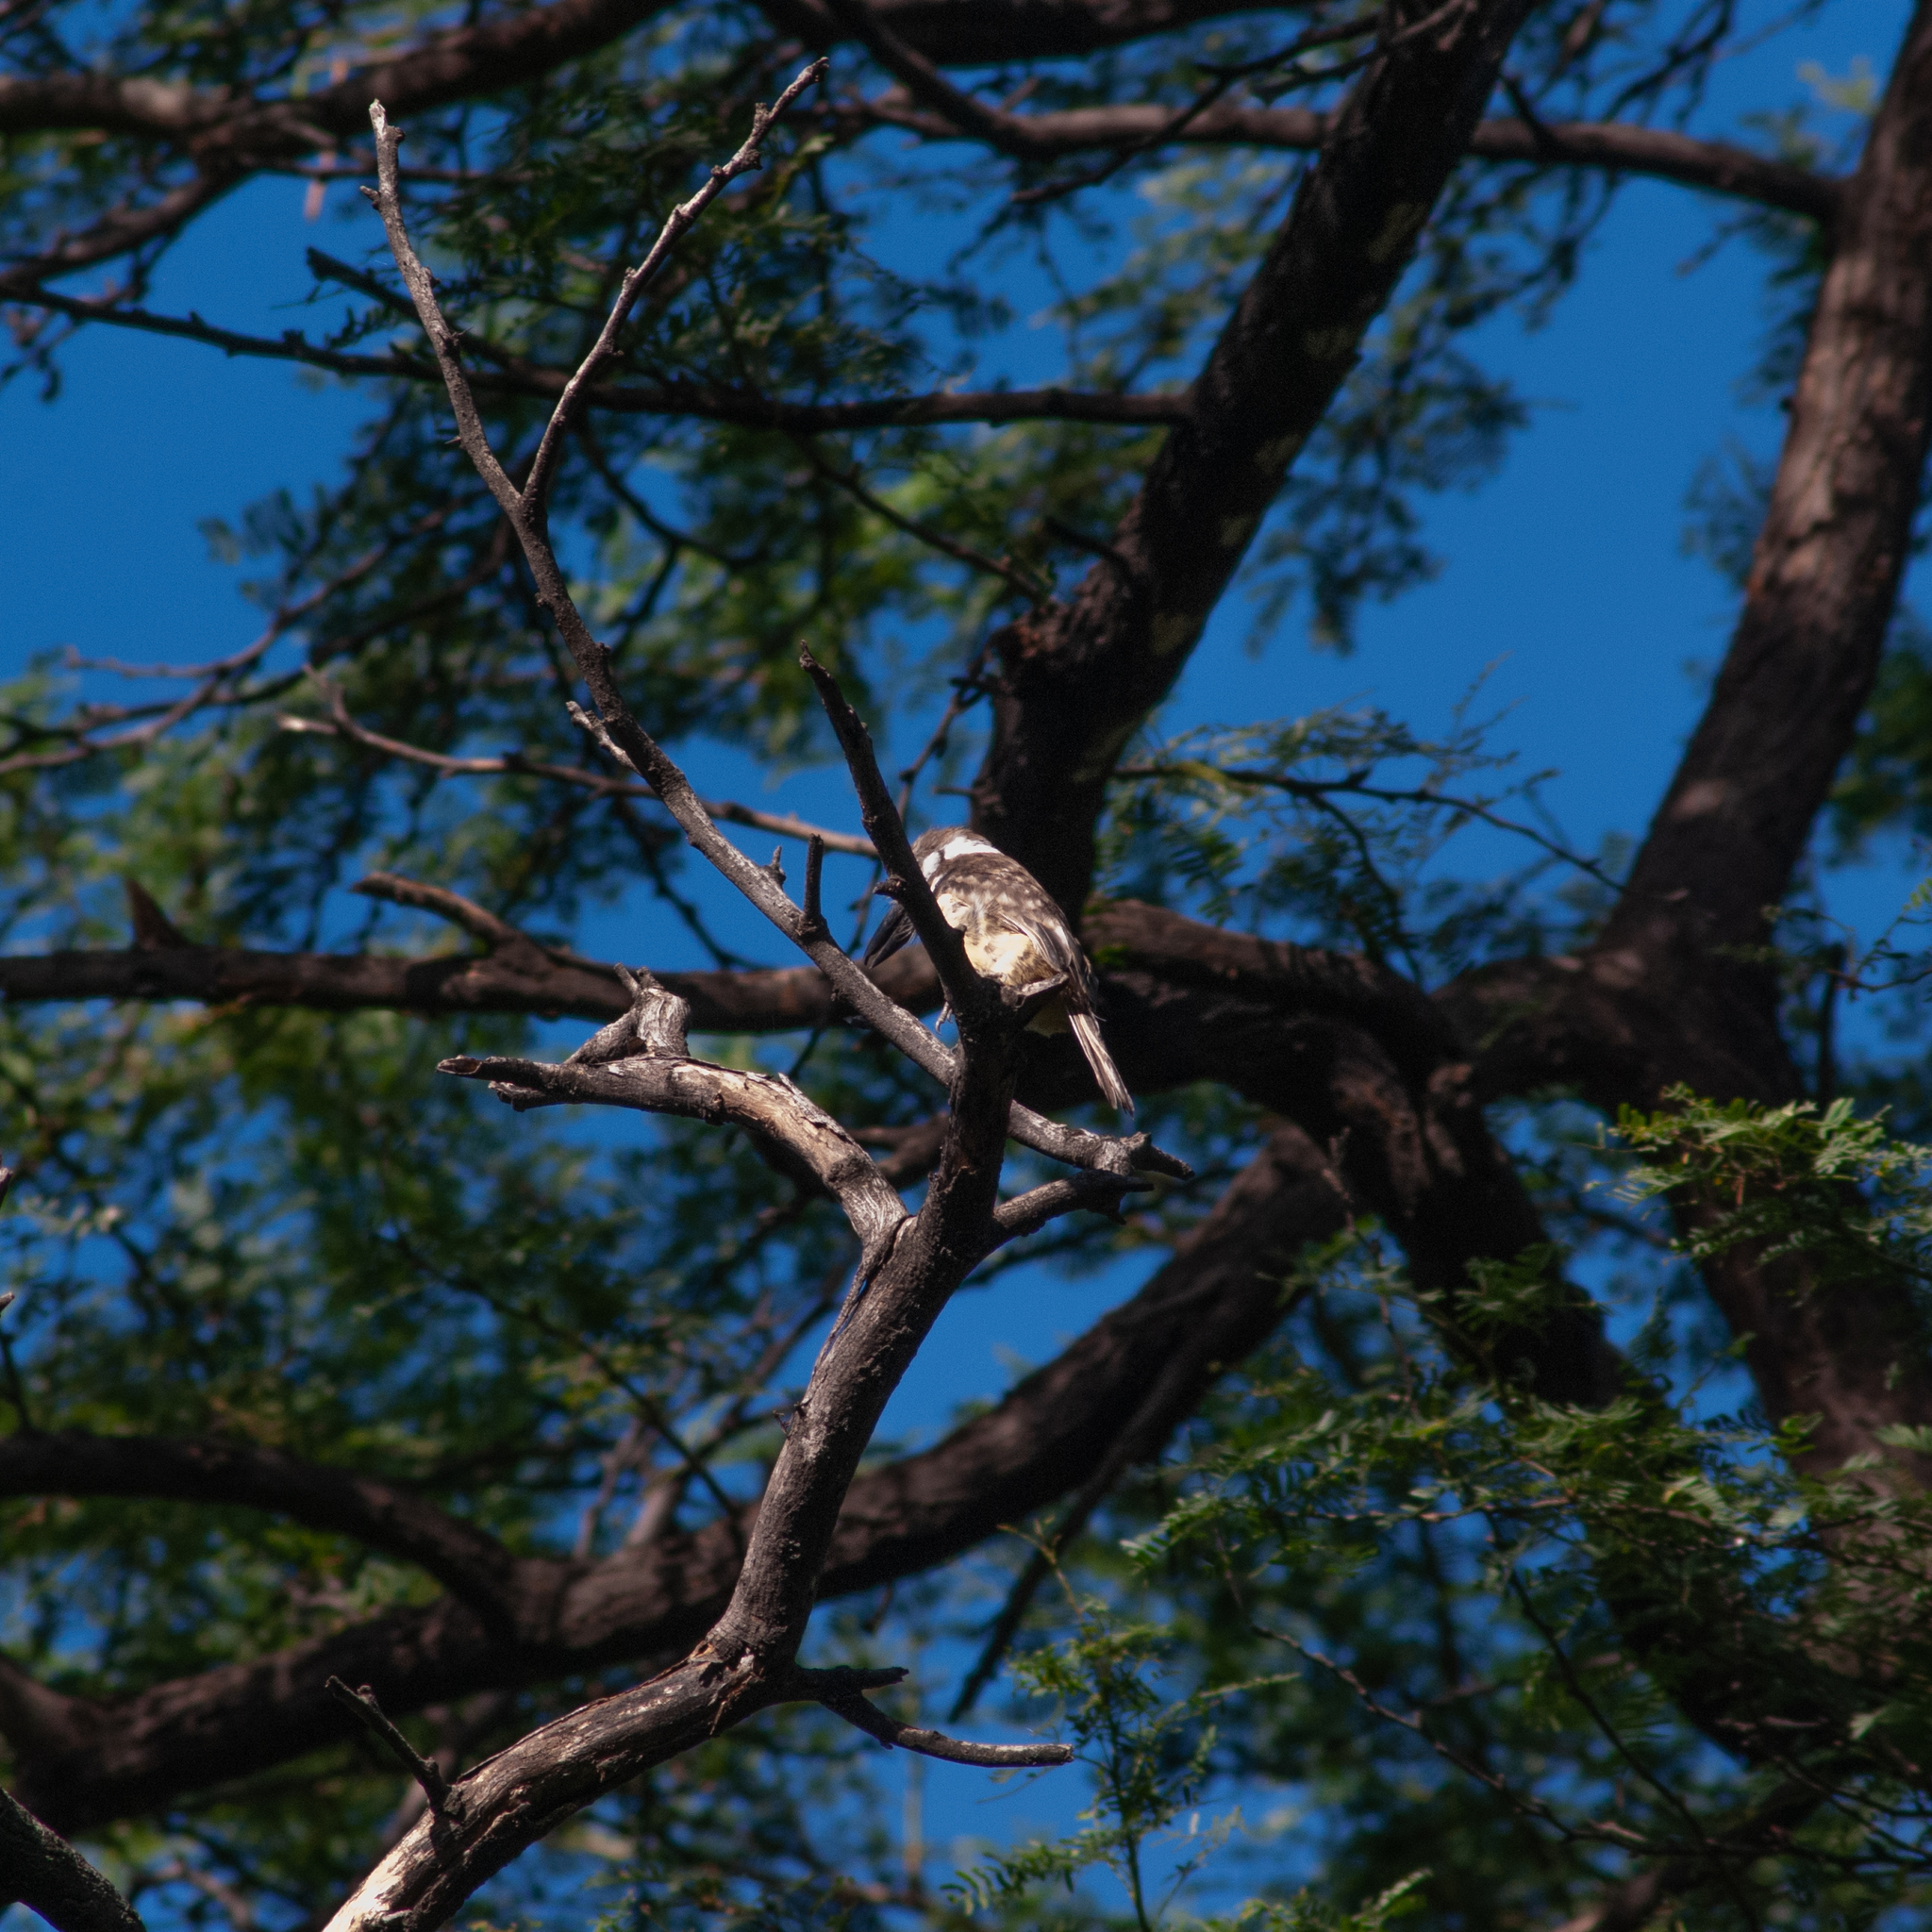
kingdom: Animalia
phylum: Chordata
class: Aves
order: Piciformes
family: Bucconidae
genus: Hypnelus
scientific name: Hypnelus ruficollis
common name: Russet-throated puffbird
